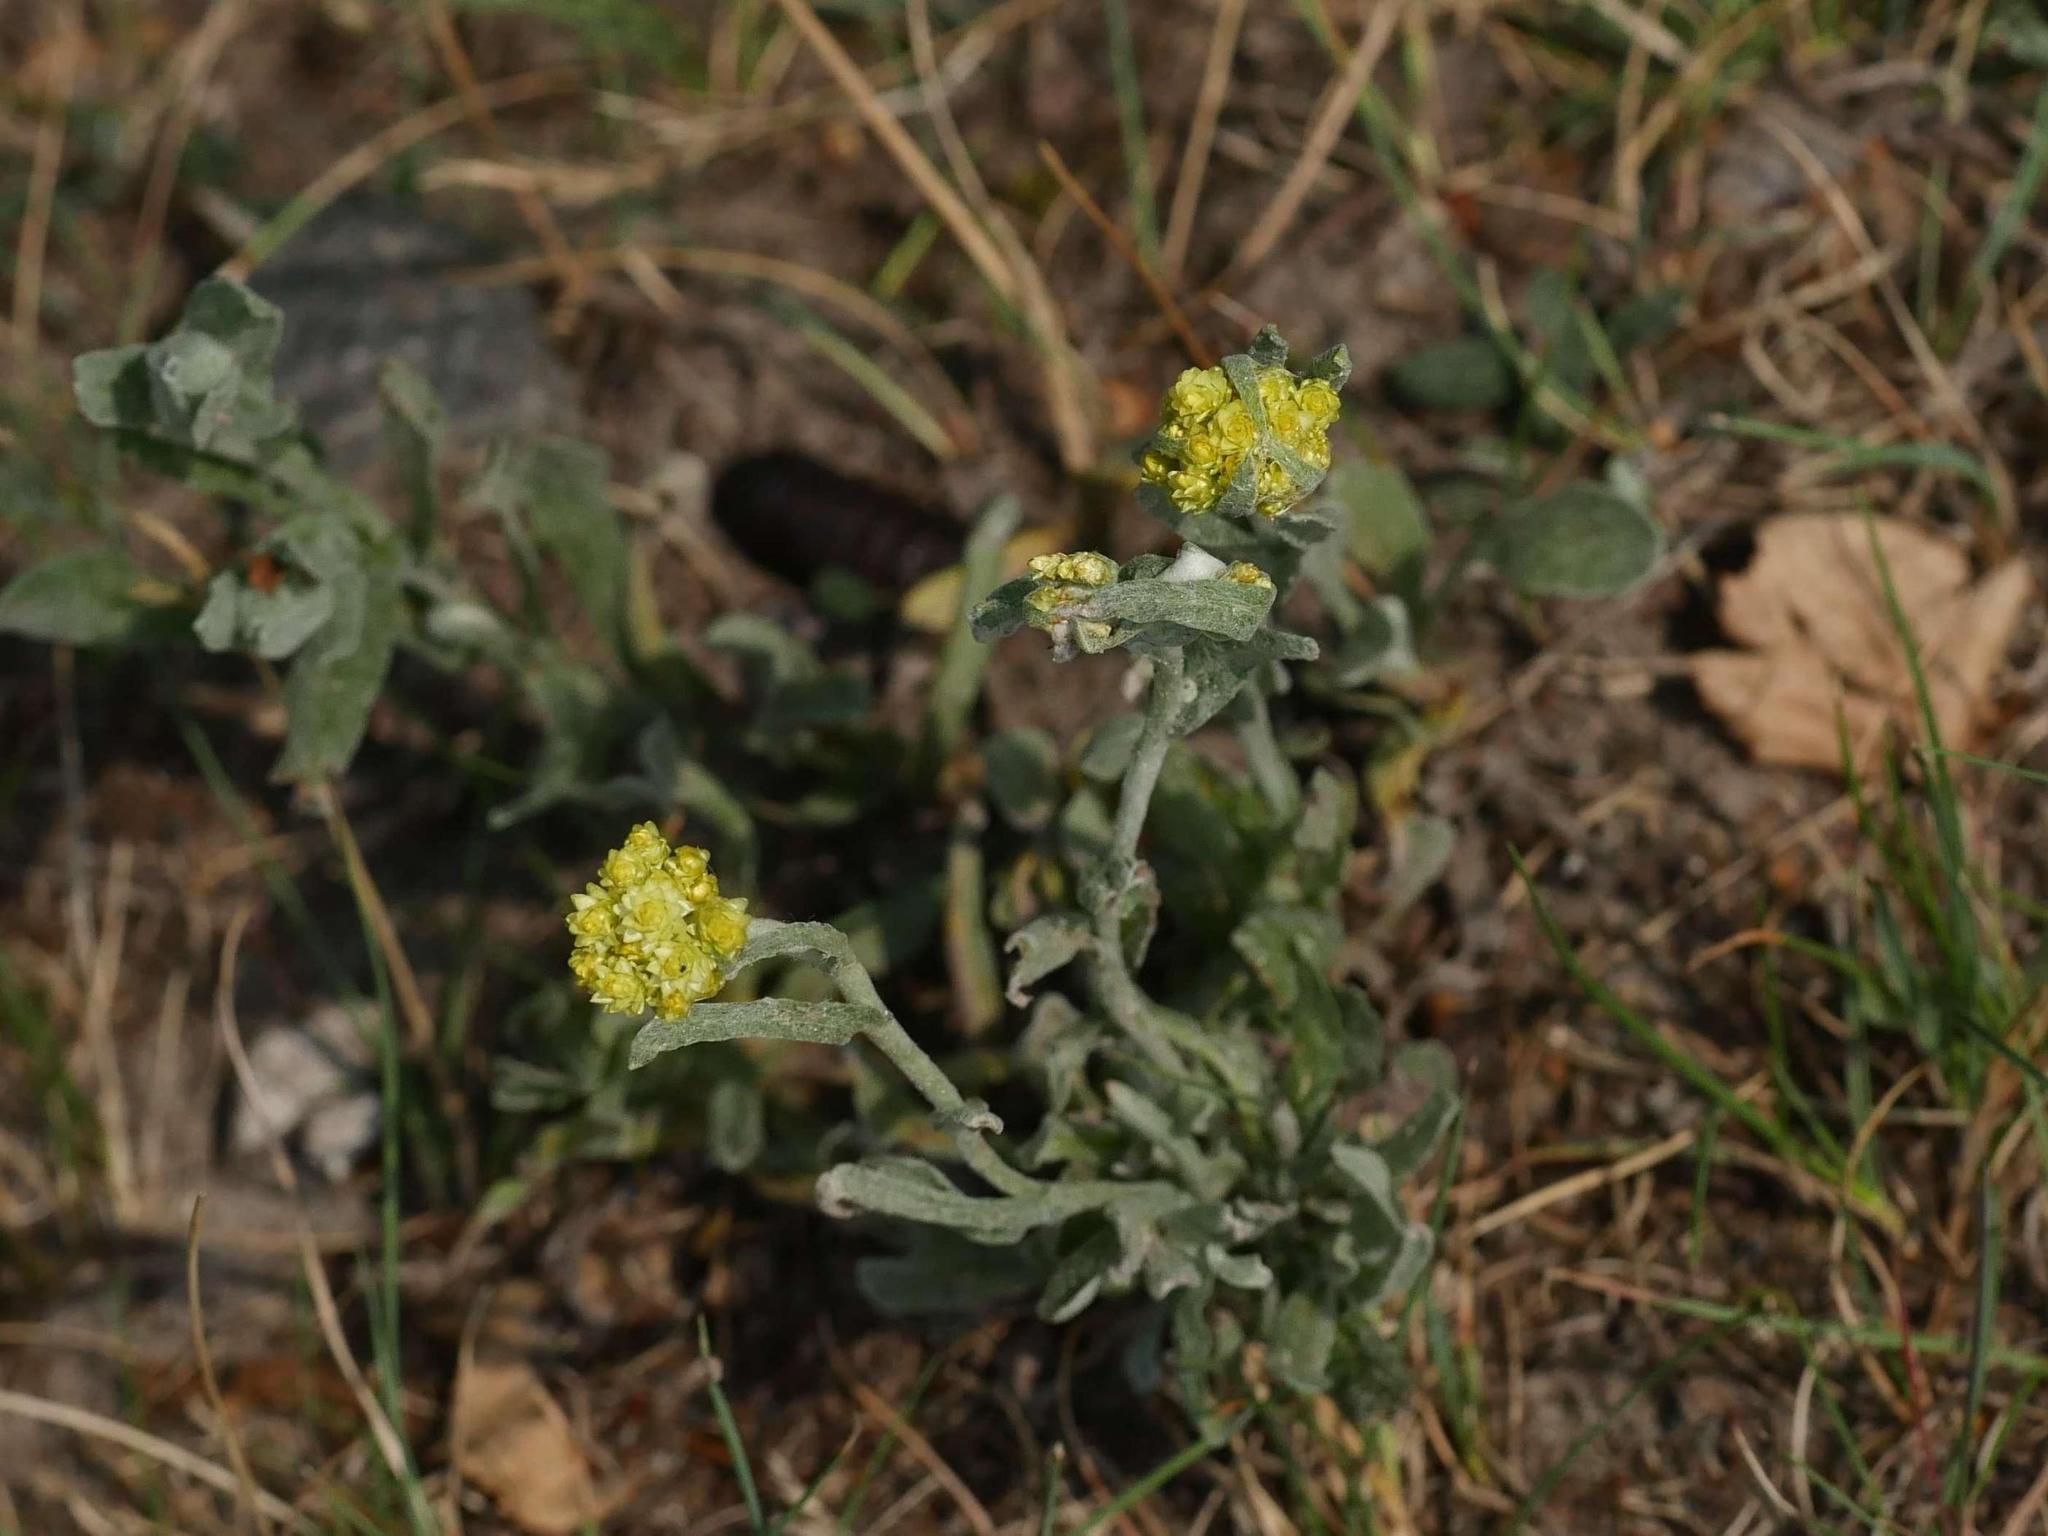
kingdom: Plantae
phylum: Tracheophyta
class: Magnoliopsida
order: Asterales
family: Asteraceae
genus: Helichrysum
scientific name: Helichrysum arenarium
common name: Strawflower
